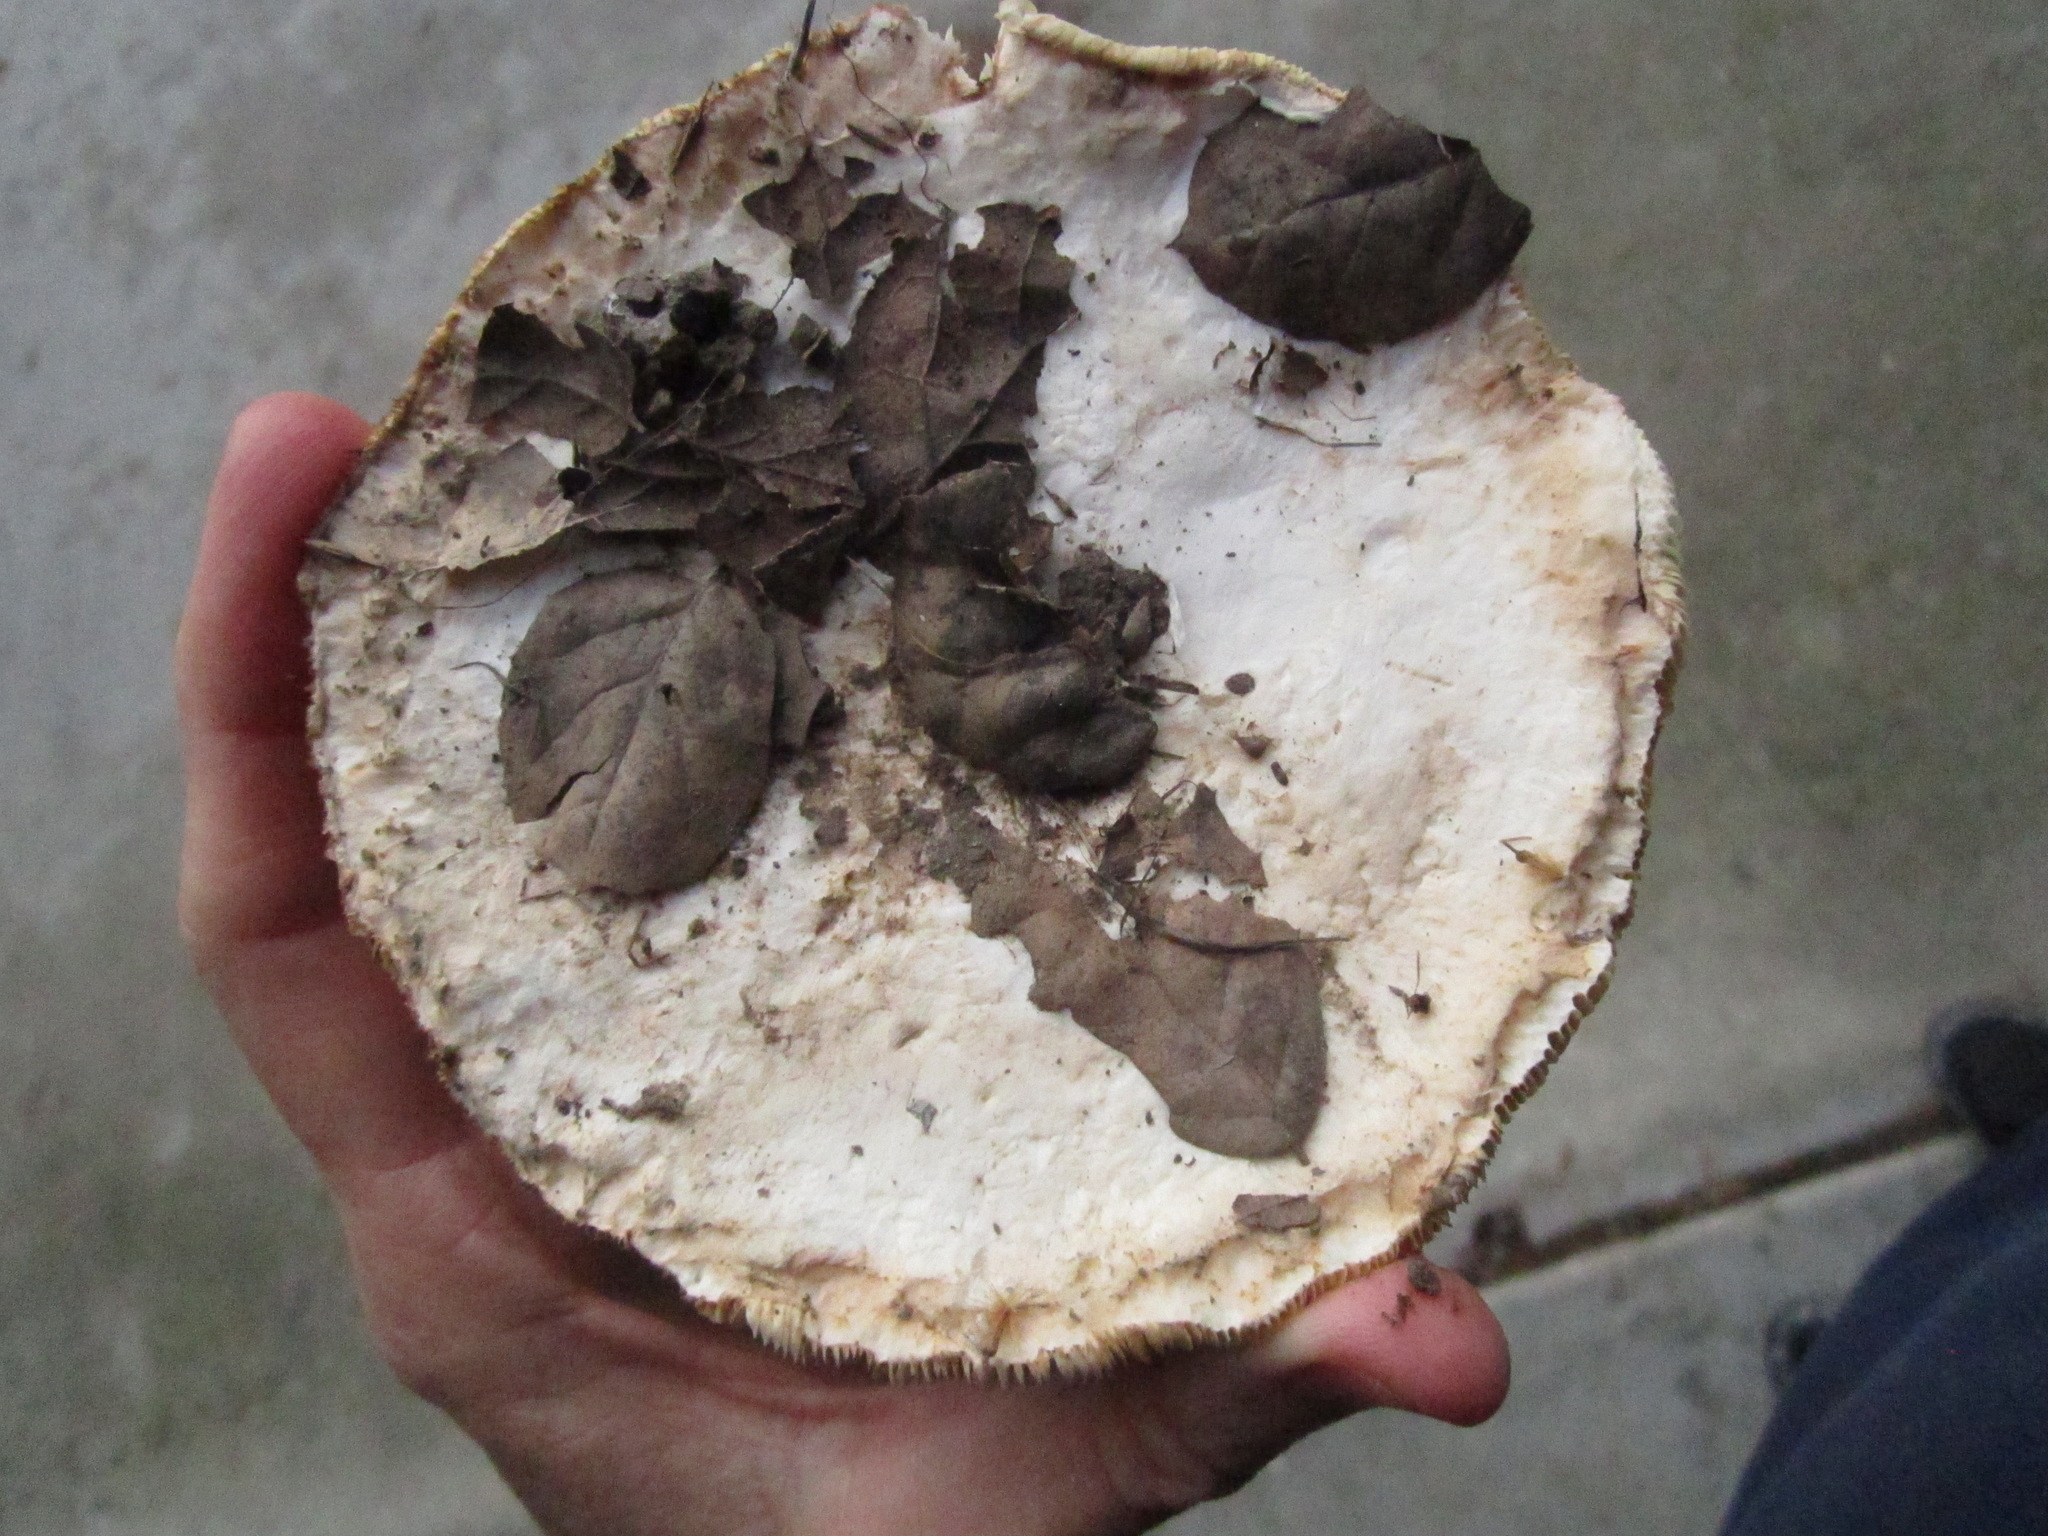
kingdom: Fungi
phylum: Basidiomycota
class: Agaricomycetes
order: Agaricales
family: Agaricaceae
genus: Leucoagaricus
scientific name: Leucoagaricus amanitoides
